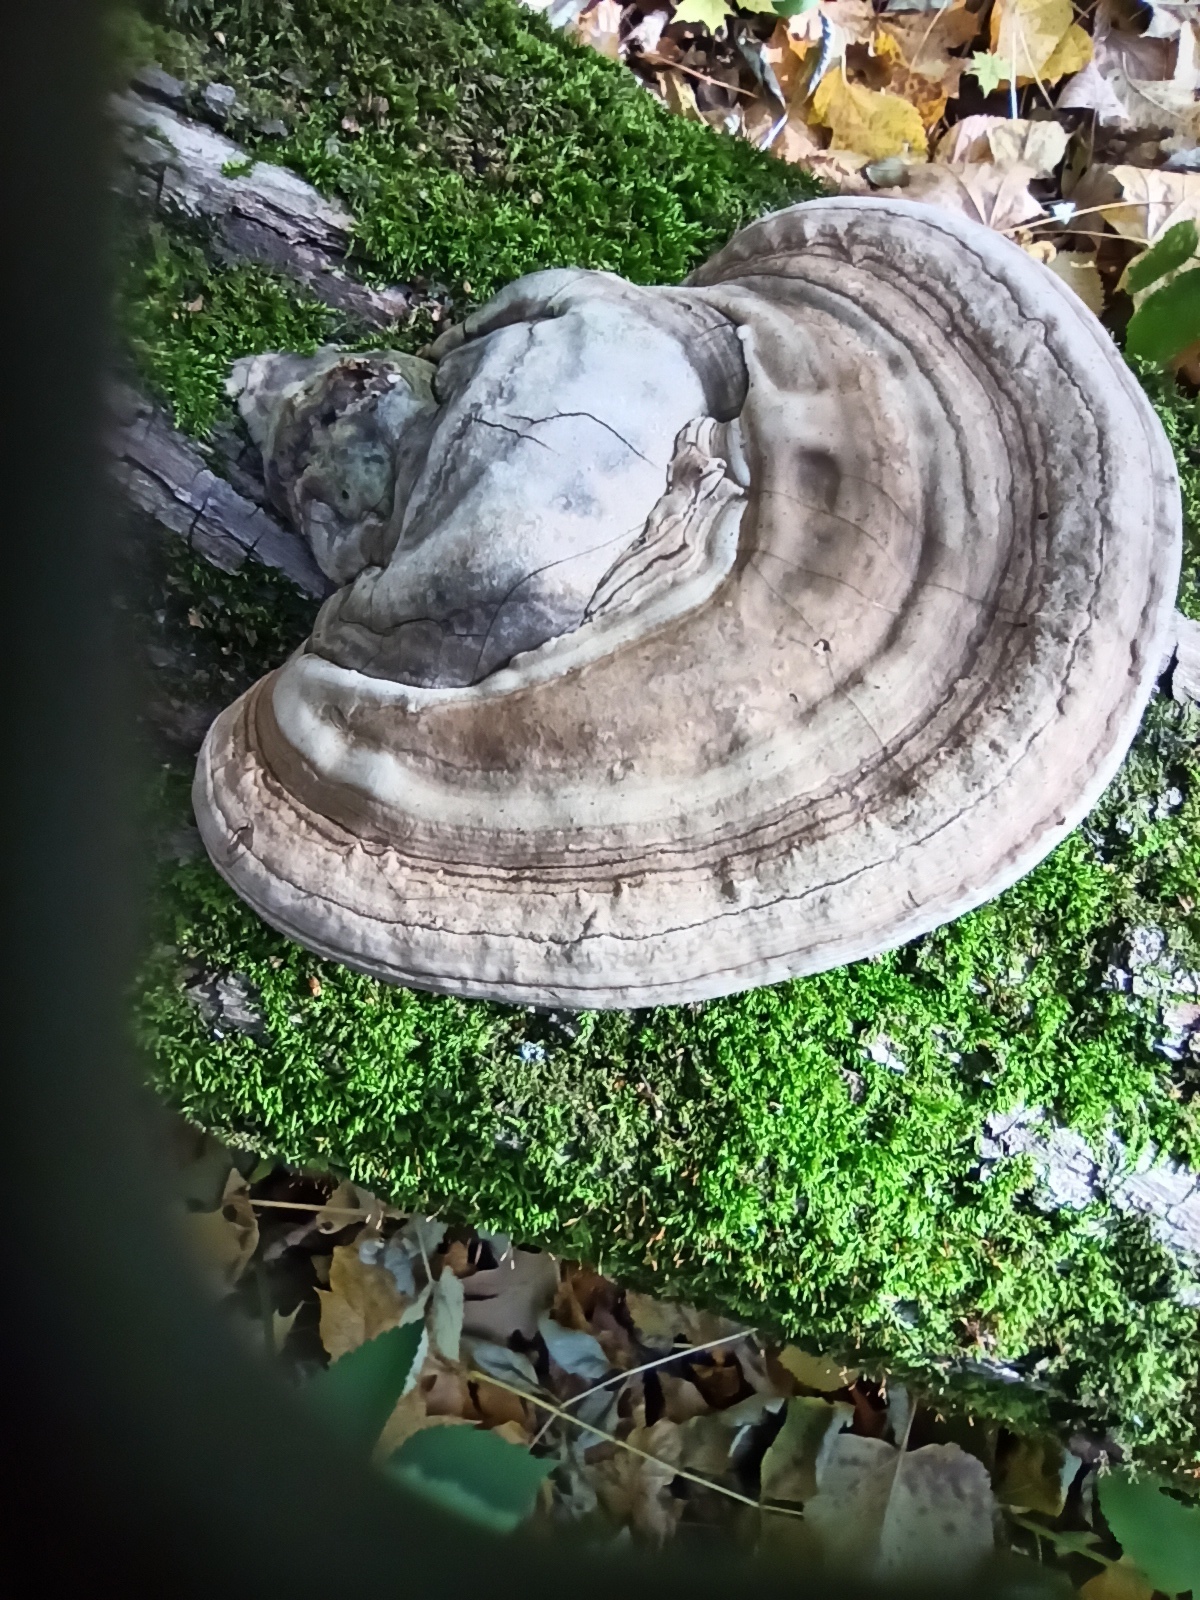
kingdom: Fungi
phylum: Basidiomycota
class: Agaricomycetes
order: Polyporales
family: Polyporaceae
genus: Ganoderma
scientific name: Ganoderma applanatum
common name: Artist's bracket
